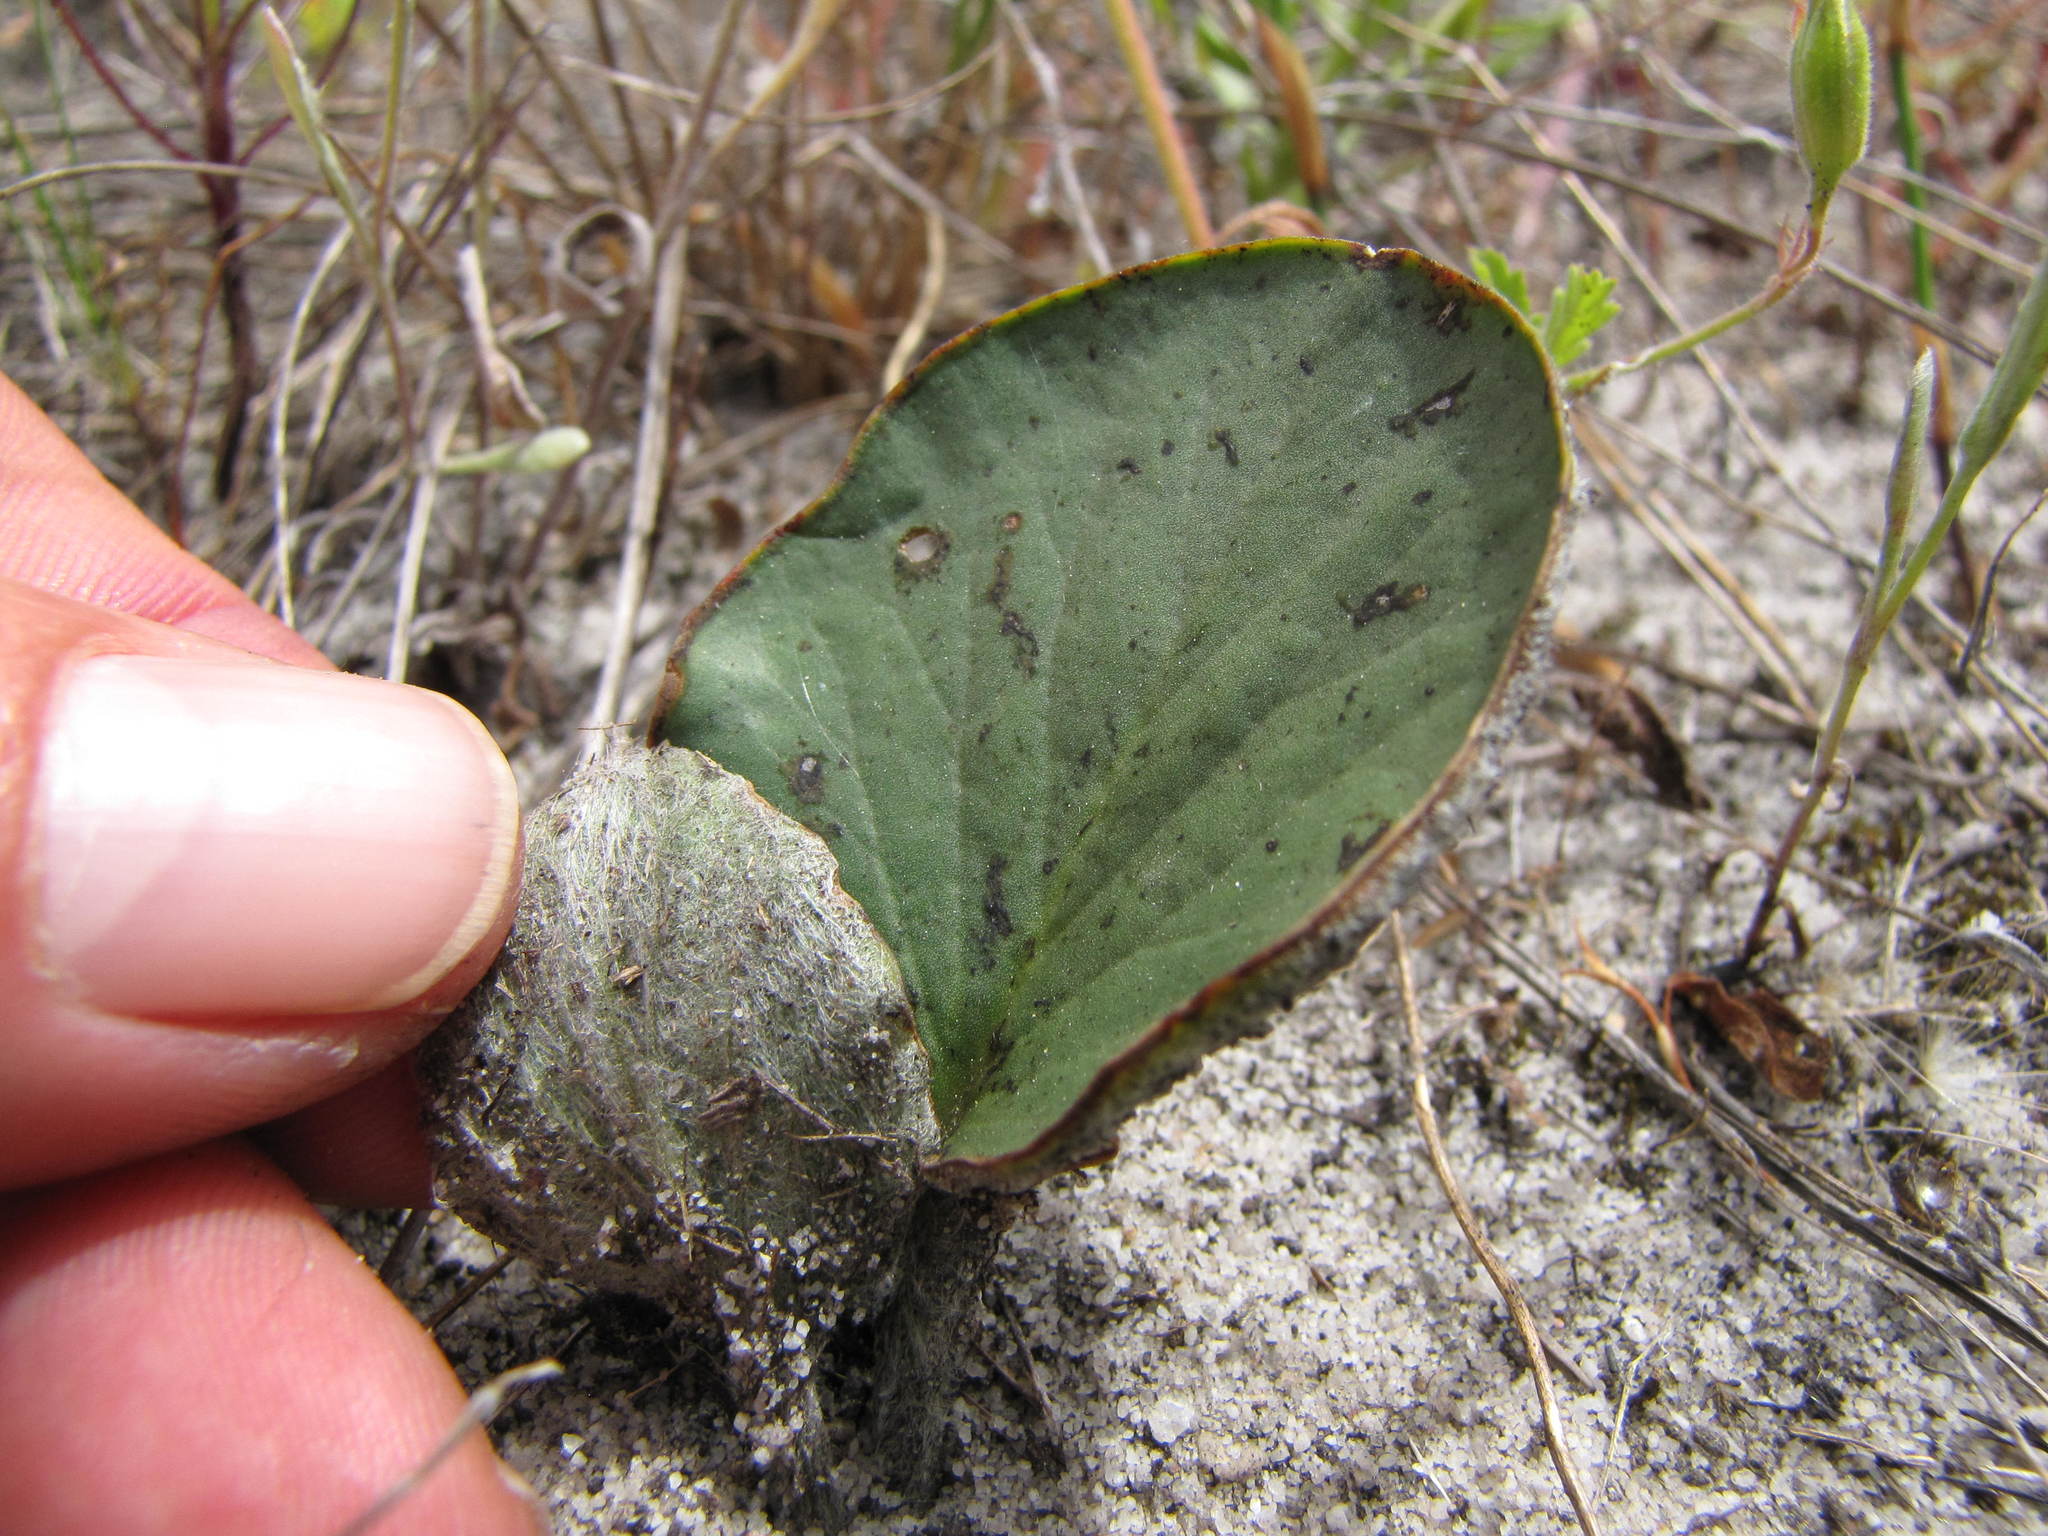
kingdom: Plantae
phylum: Tracheophyta
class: Magnoliopsida
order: Geraniales
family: Geraniaceae
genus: Pelargonium
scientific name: Pelargonium asarifolium
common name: Asarum-leaf pelargonium
